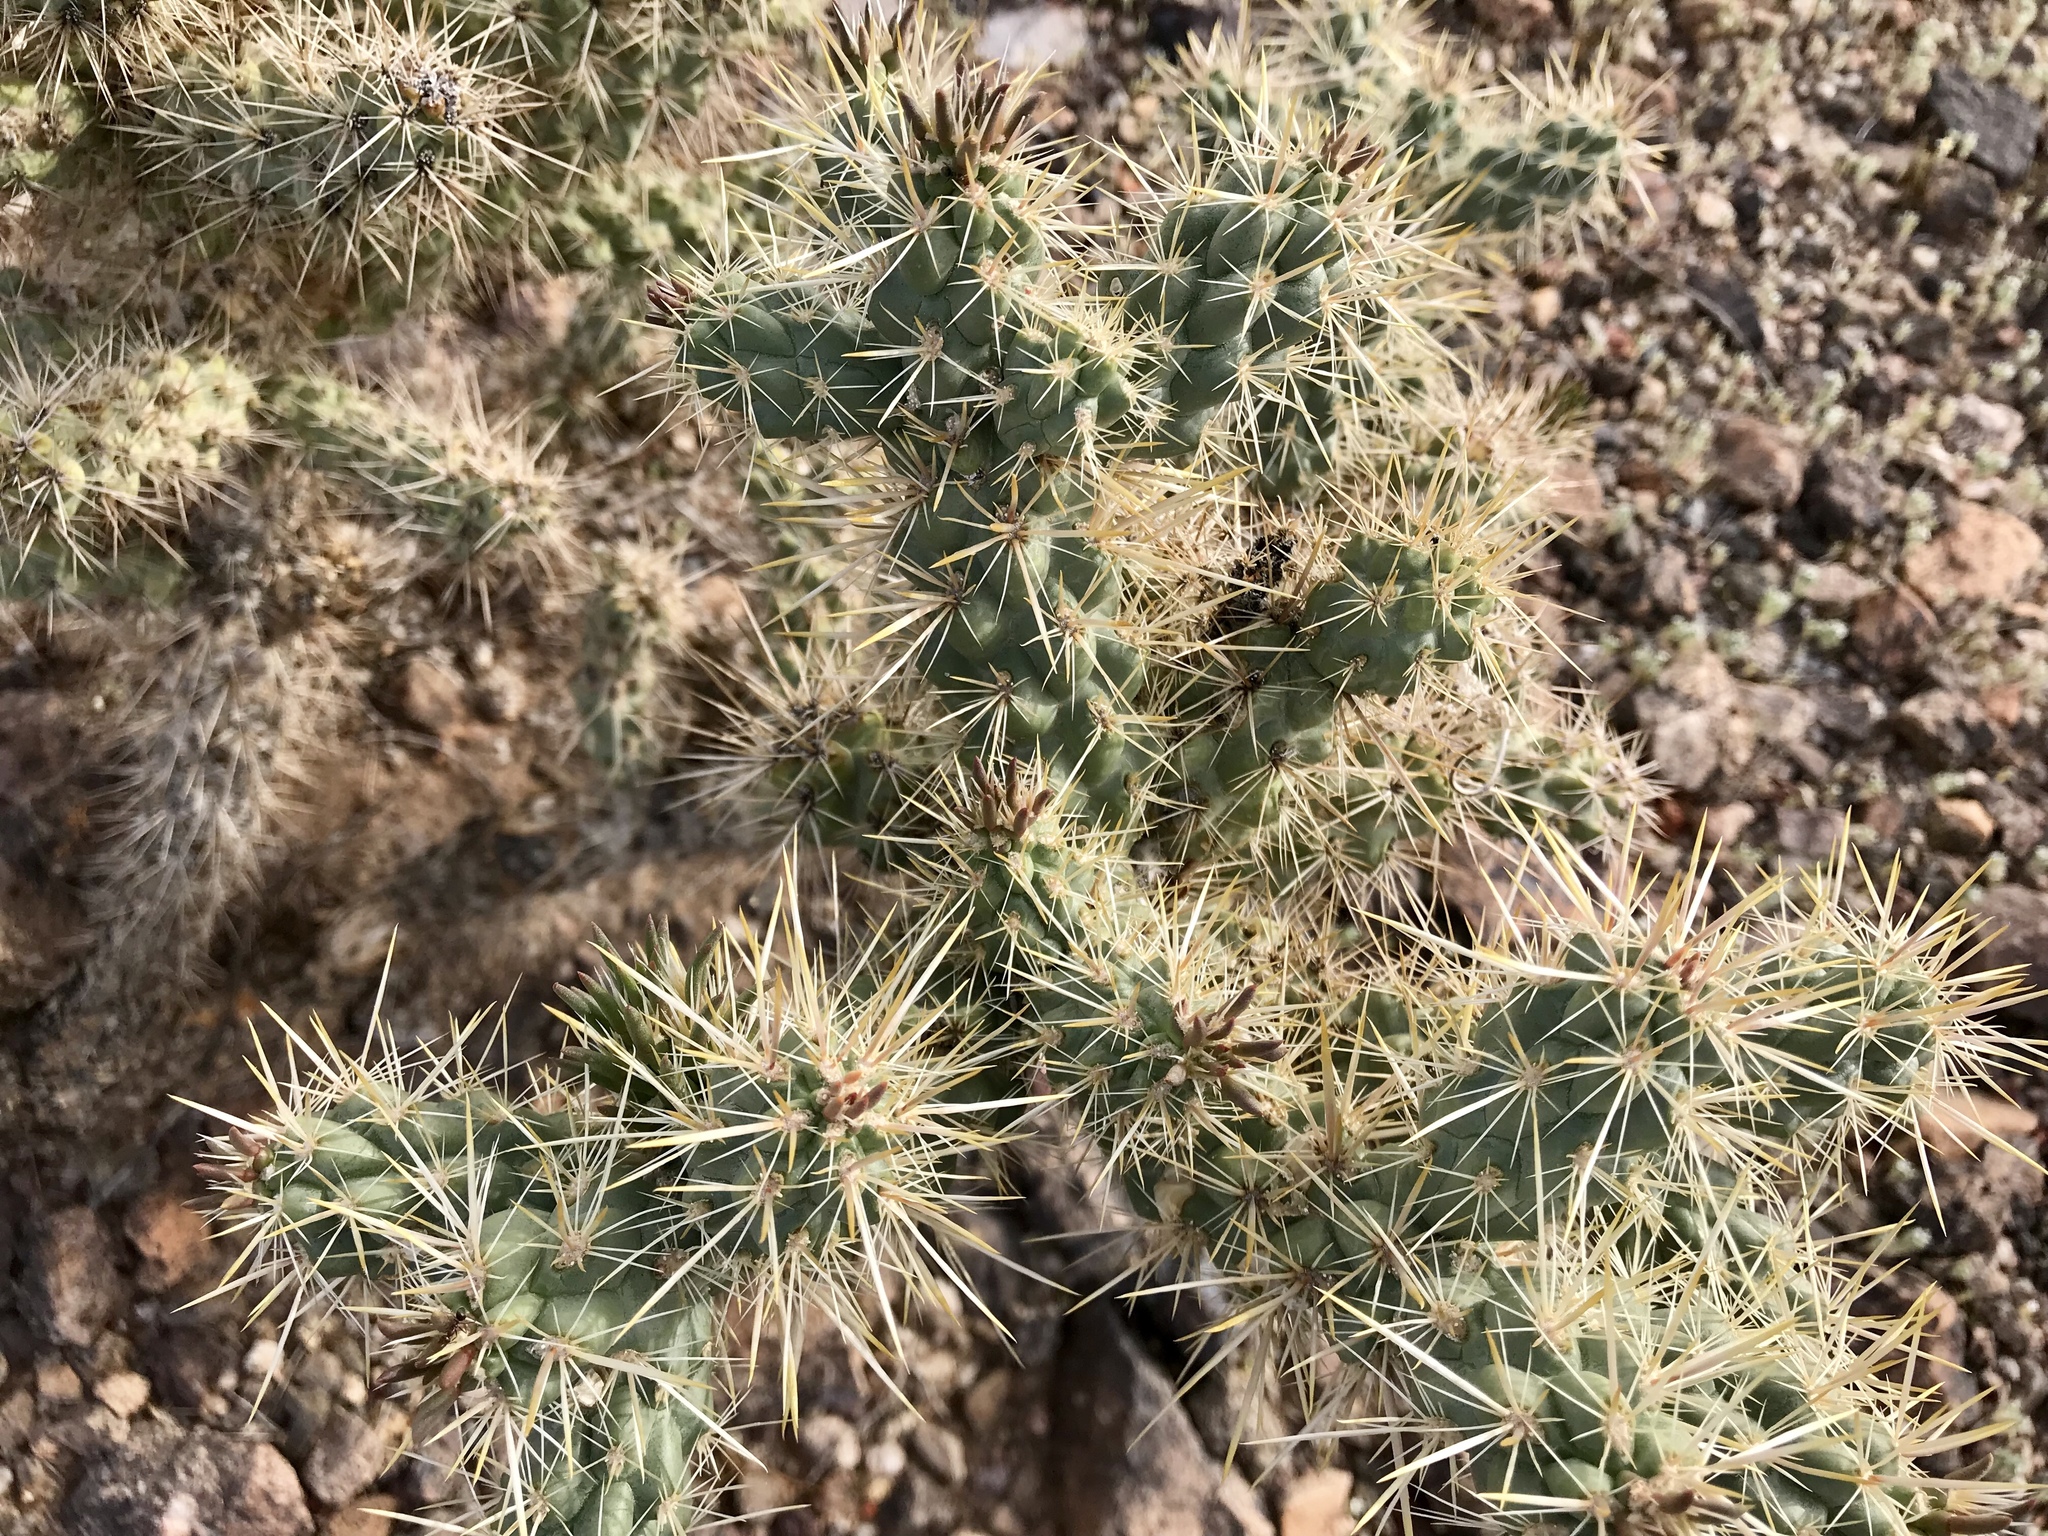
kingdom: Plantae
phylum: Tracheophyta
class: Magnoliopsida
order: Caryophyllales
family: Cactaceae
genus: Cylindropuntia
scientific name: Cylindropuntia echinocarpa
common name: Ground cholla
